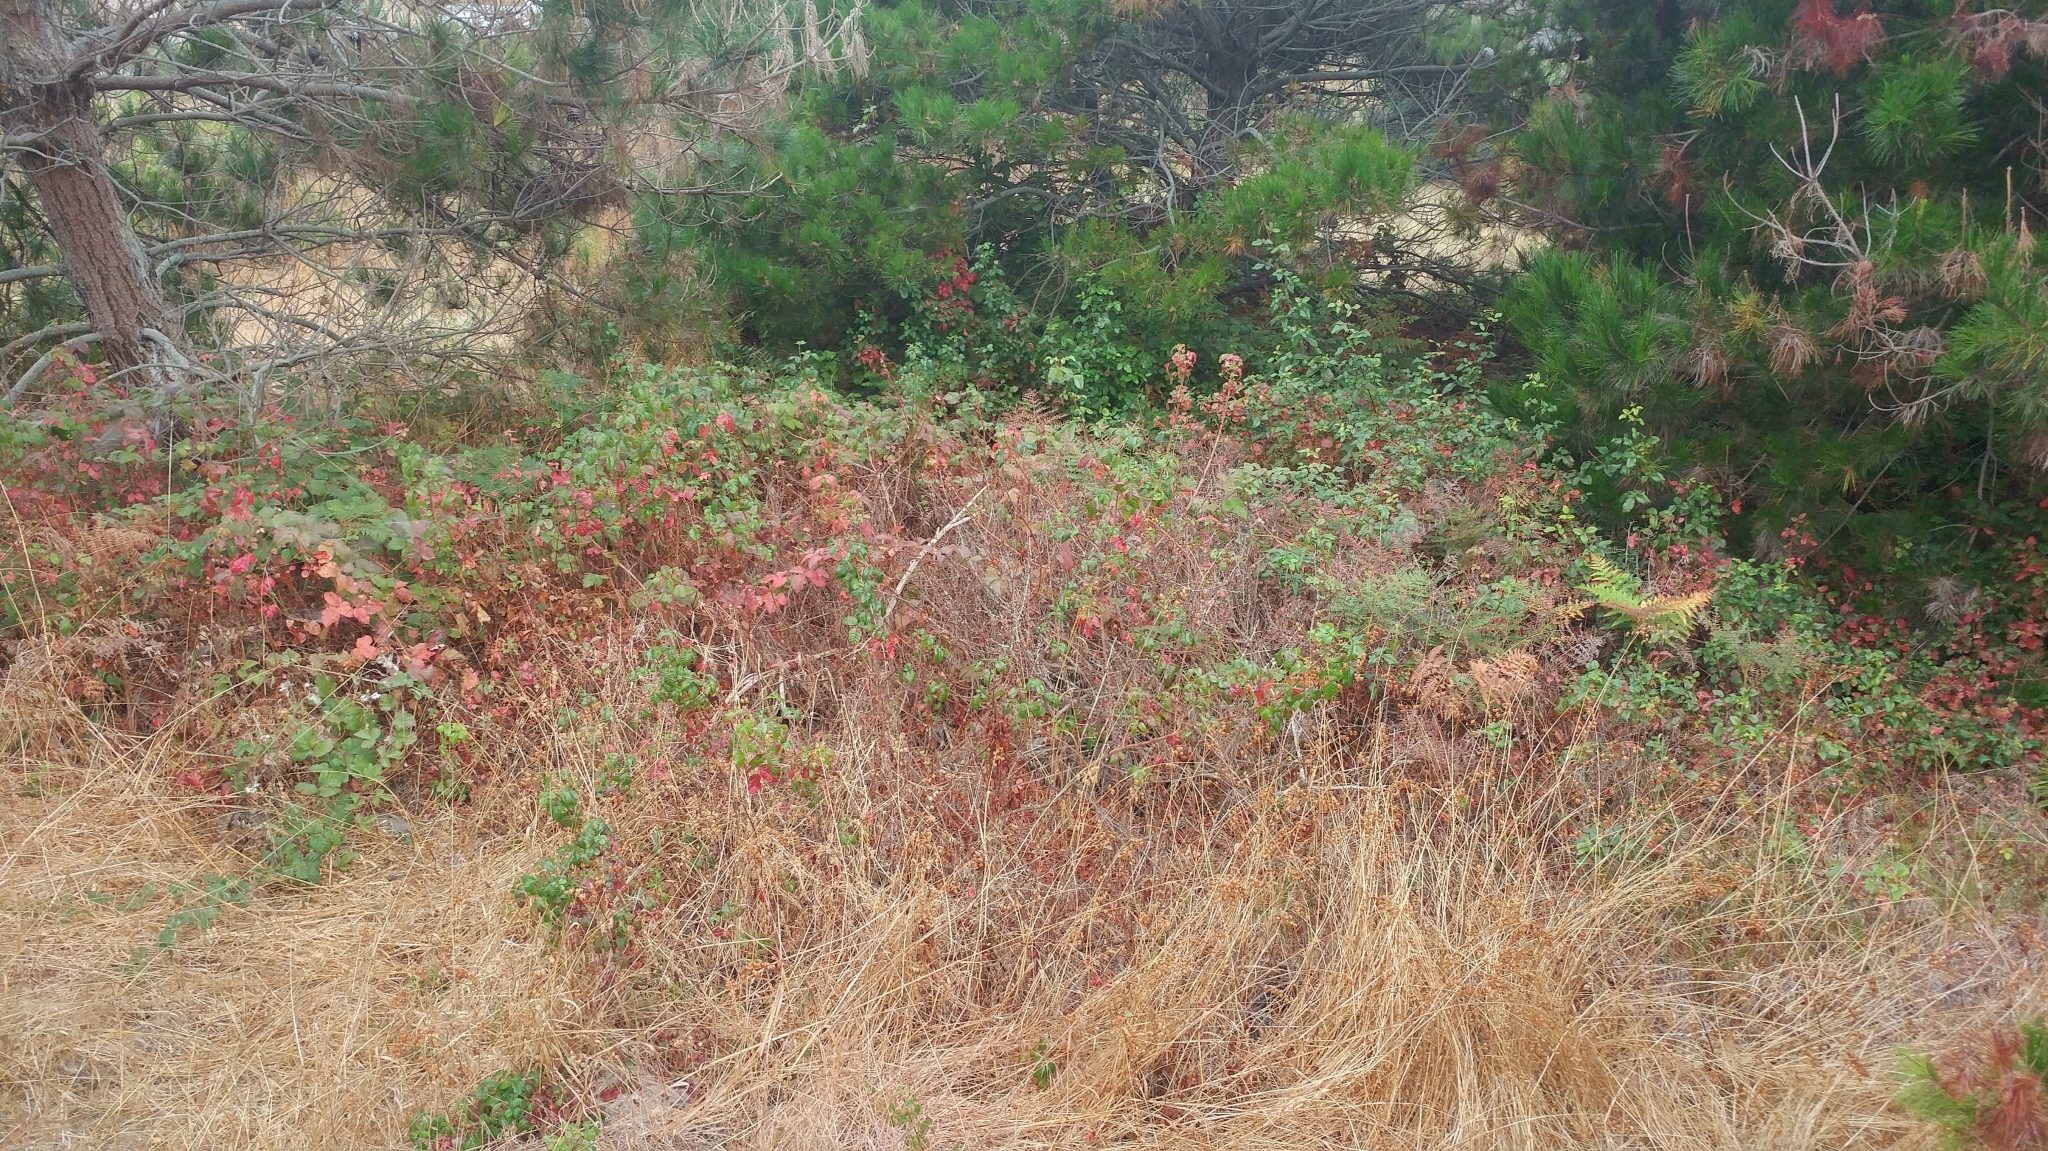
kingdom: Plantae
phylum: Tracheophyta
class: Magnoliopsida
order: Sapindales
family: Anacardiaceae
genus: Toxicodendron
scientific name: Toxicodendron diversilobum
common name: Pacific poison-oak
